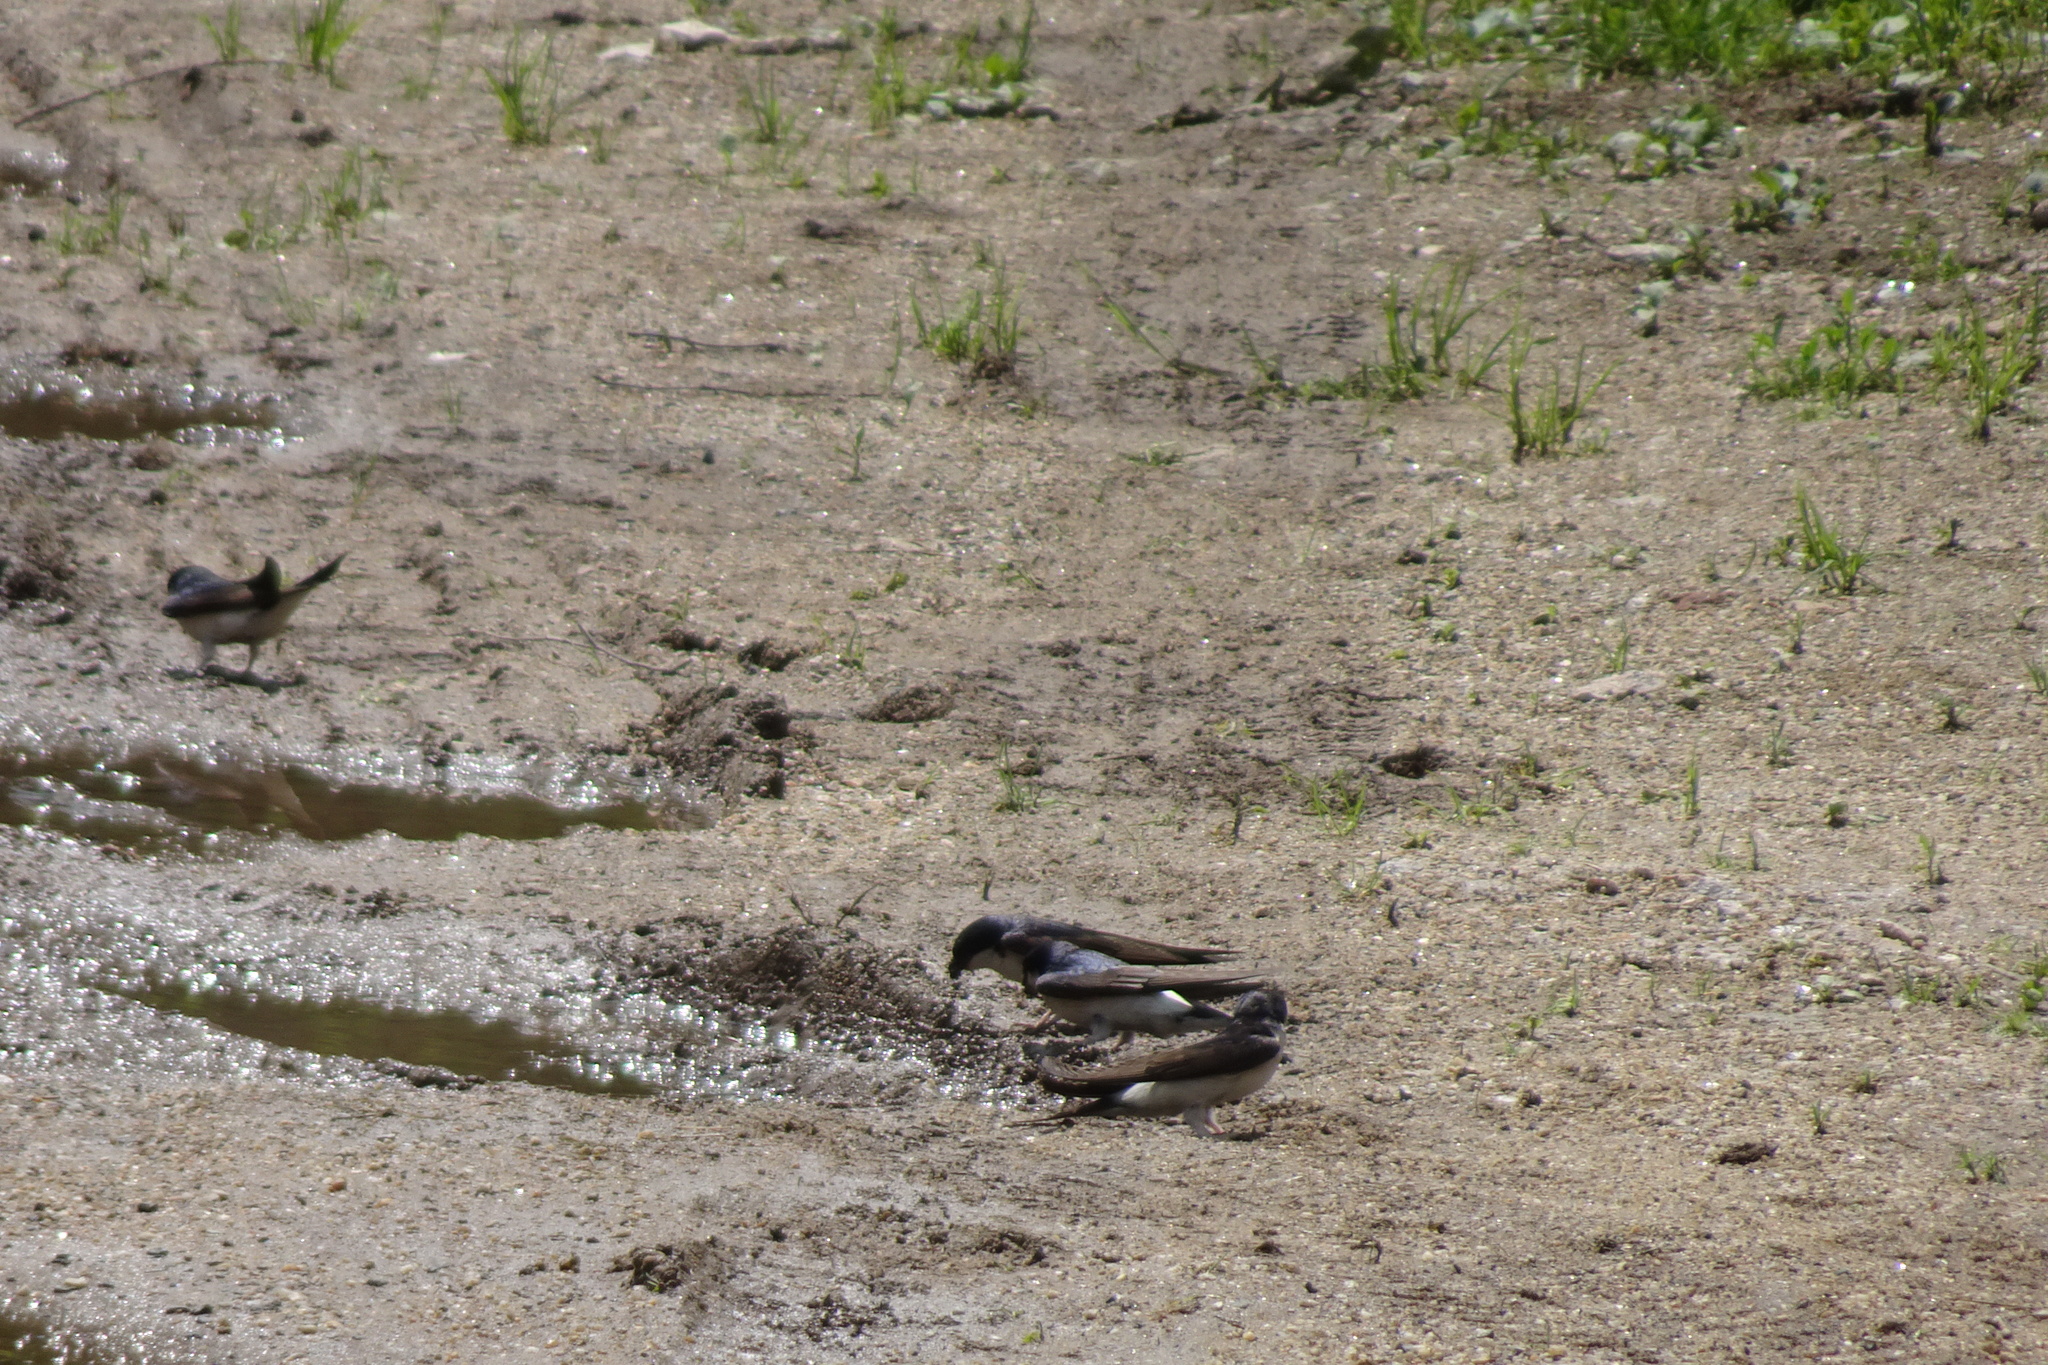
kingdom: Animalia
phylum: Chordata
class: Aves
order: Passeriformes
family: Hirundinidae
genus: Delichon
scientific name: Delichon urbicum
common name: Common house martin
